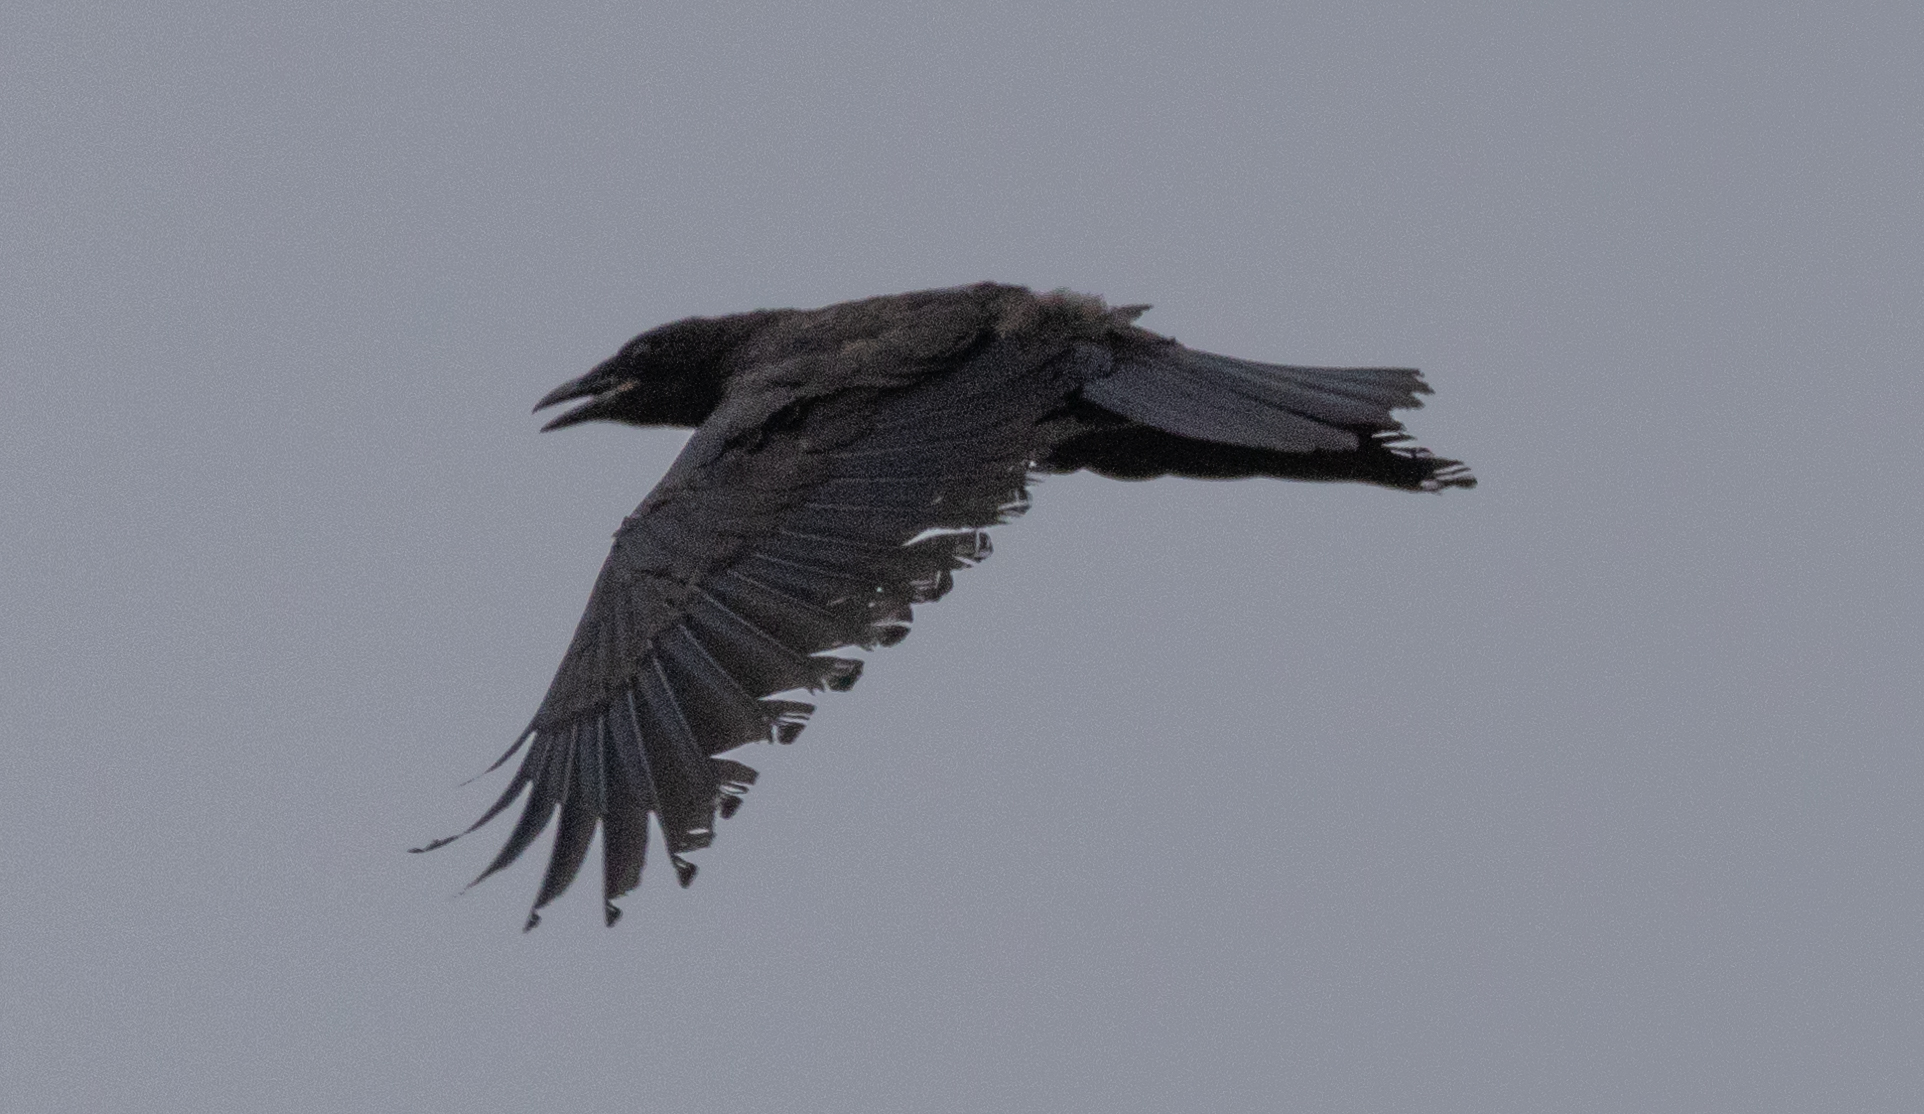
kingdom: Animalia
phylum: Chordata
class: Aves
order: Passeriformes
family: Corvidae
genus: Corvus
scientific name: Corvus brachyrhynchos
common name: American crow
